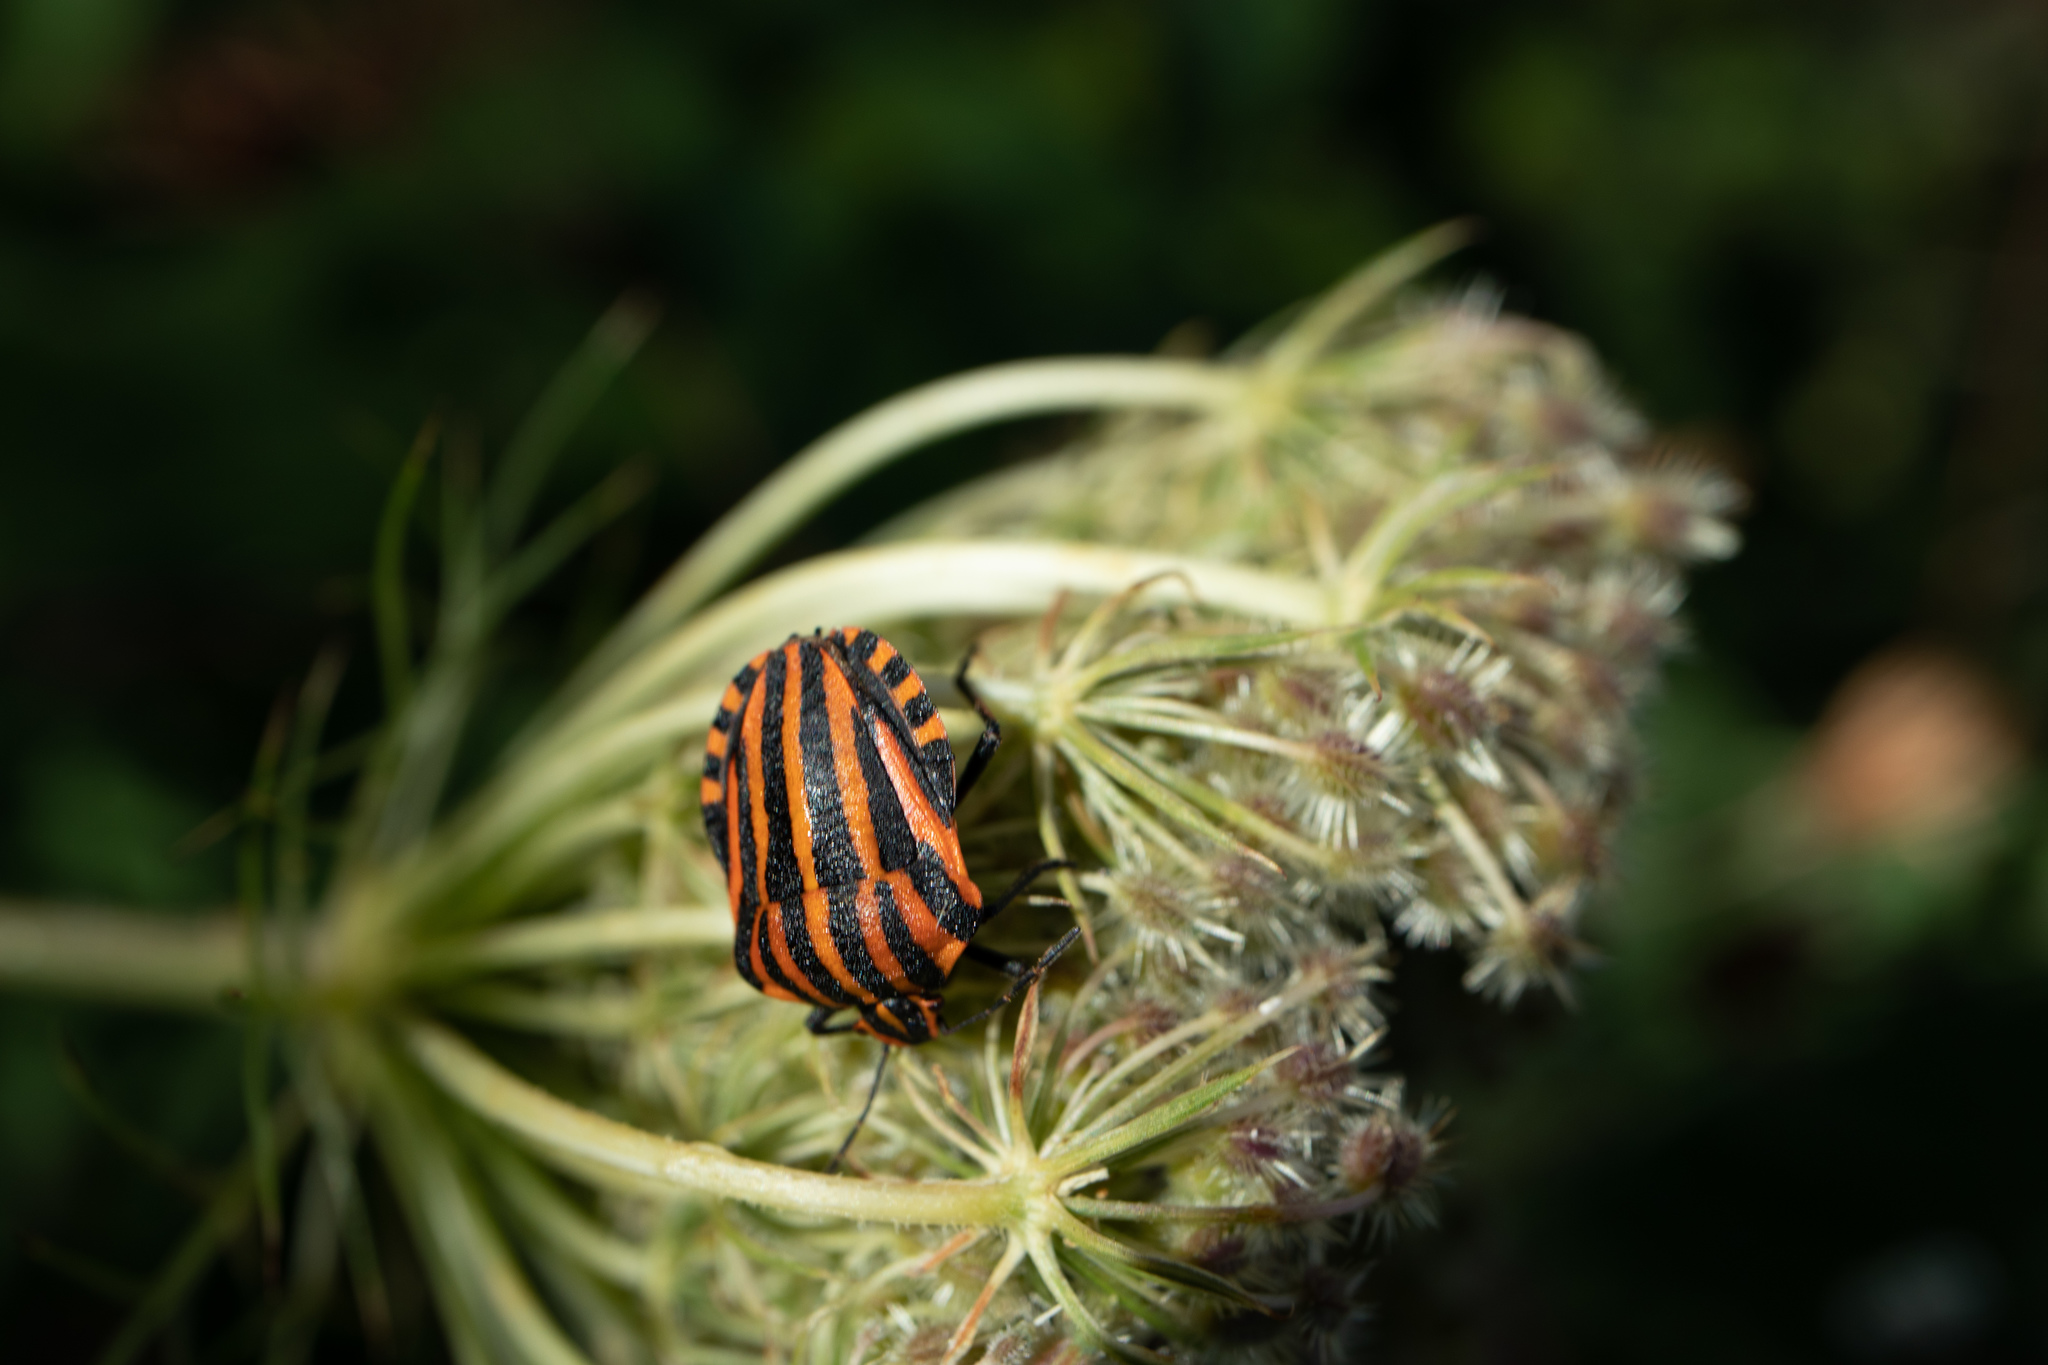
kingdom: Animalia
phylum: Arthropoda
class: Insecta
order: Hemiptera
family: Pentatomidae
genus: Graphosoma
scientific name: Graphosoma italicum
